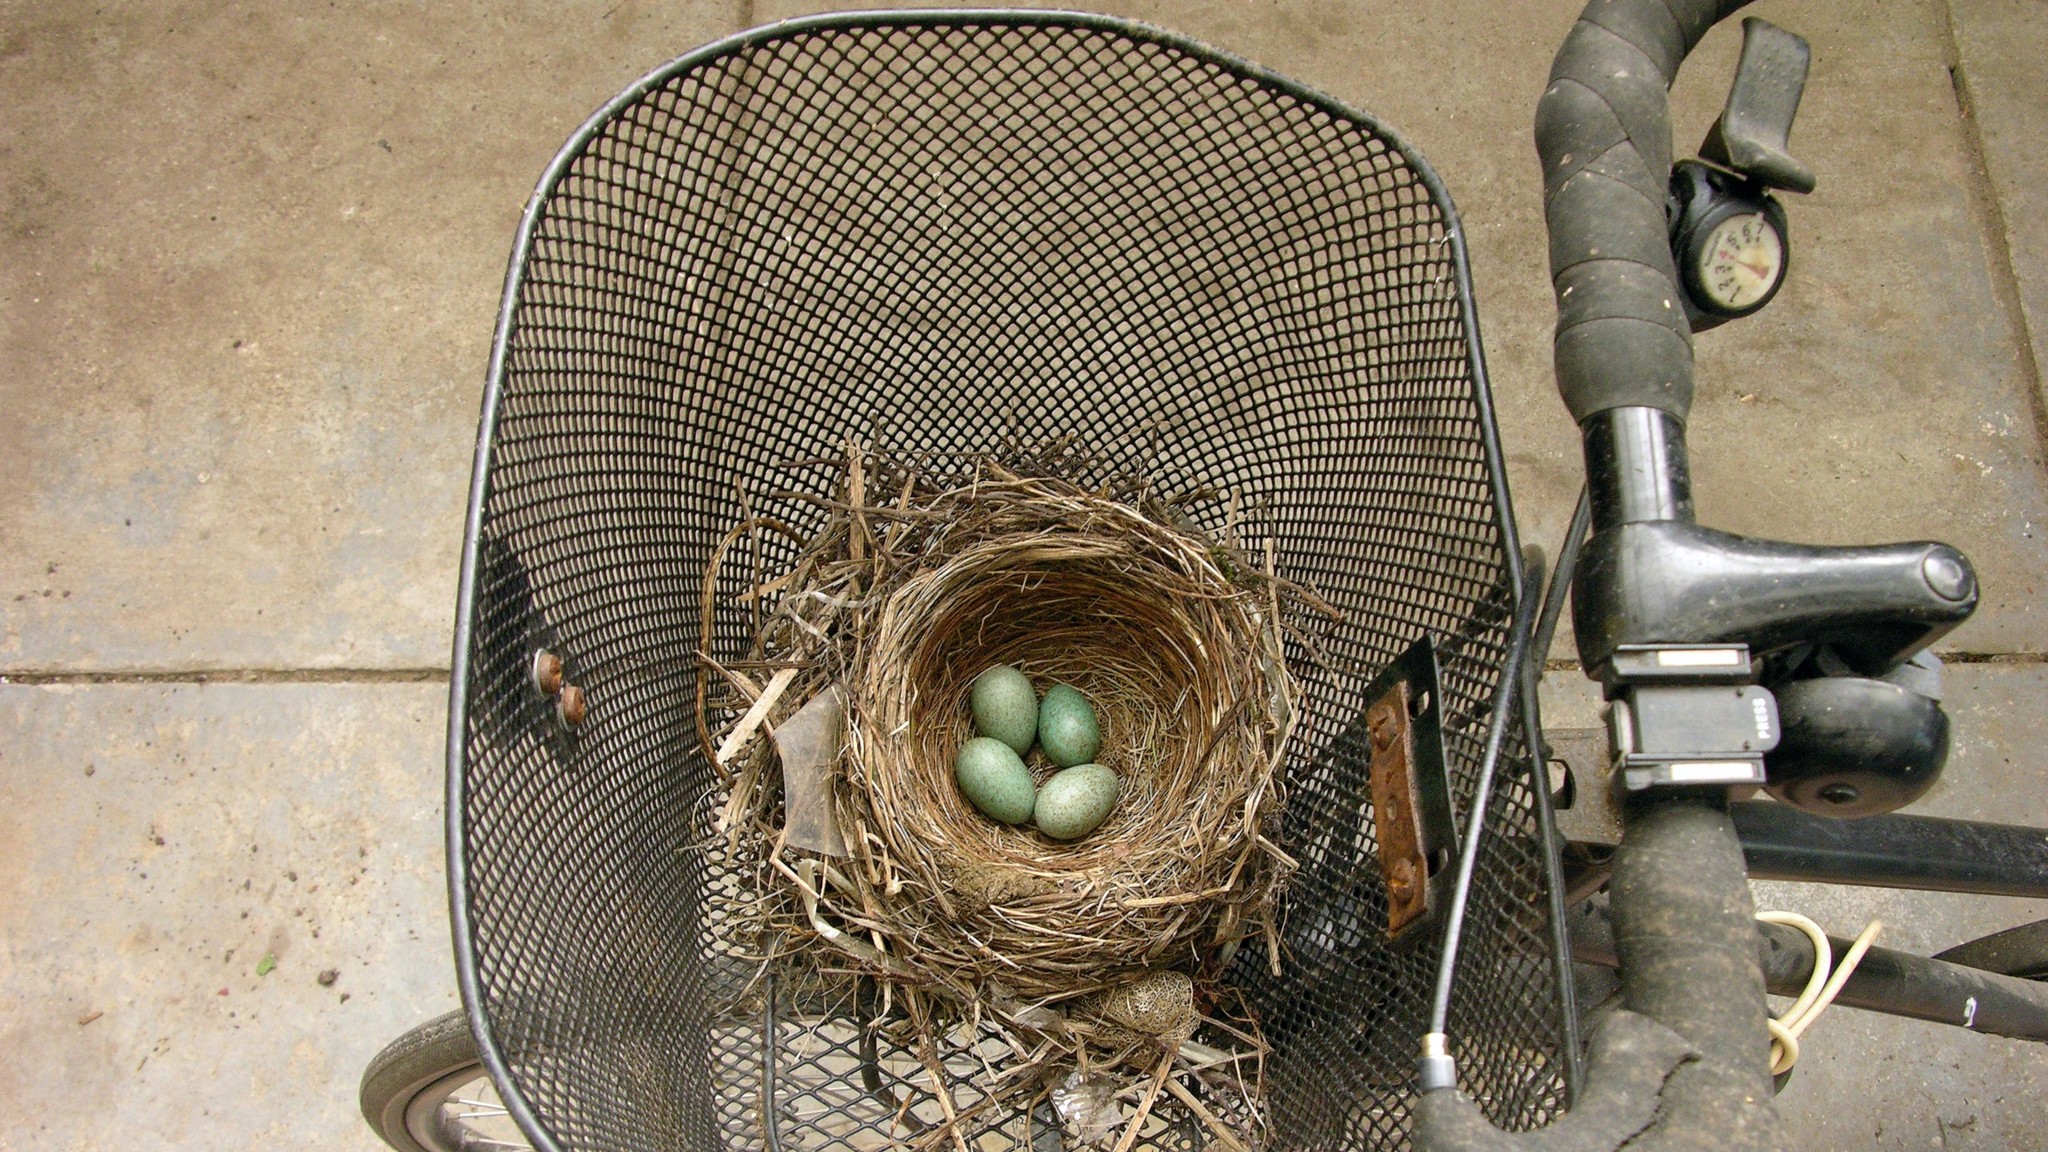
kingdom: Animalia
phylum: Chordata
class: Aves
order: Passeriformes
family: Turdidae
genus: Turdus
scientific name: Turdus merula
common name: Common blackbird
